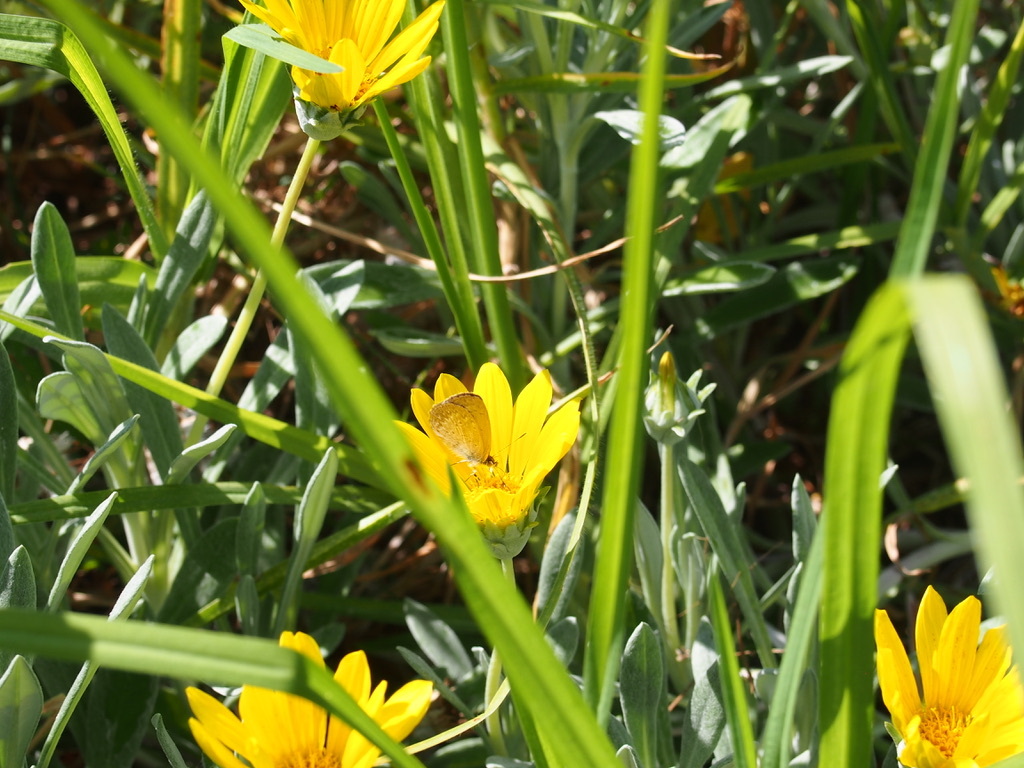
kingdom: Animalia
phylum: Arthropoda
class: Insecta
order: Lepidoptera
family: Lycaenidae
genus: Zizina
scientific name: Zizina otis
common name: Lesser grass blue
